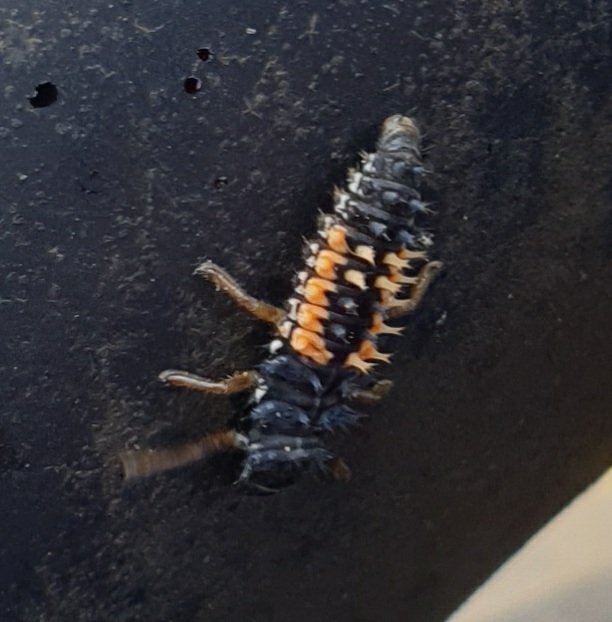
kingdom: Animalia
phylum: Arthropoda
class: Insecta
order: Coleoptera
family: Coccinellidae
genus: Harmonia
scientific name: Harmonia axyridis
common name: Harlequin ladybird
